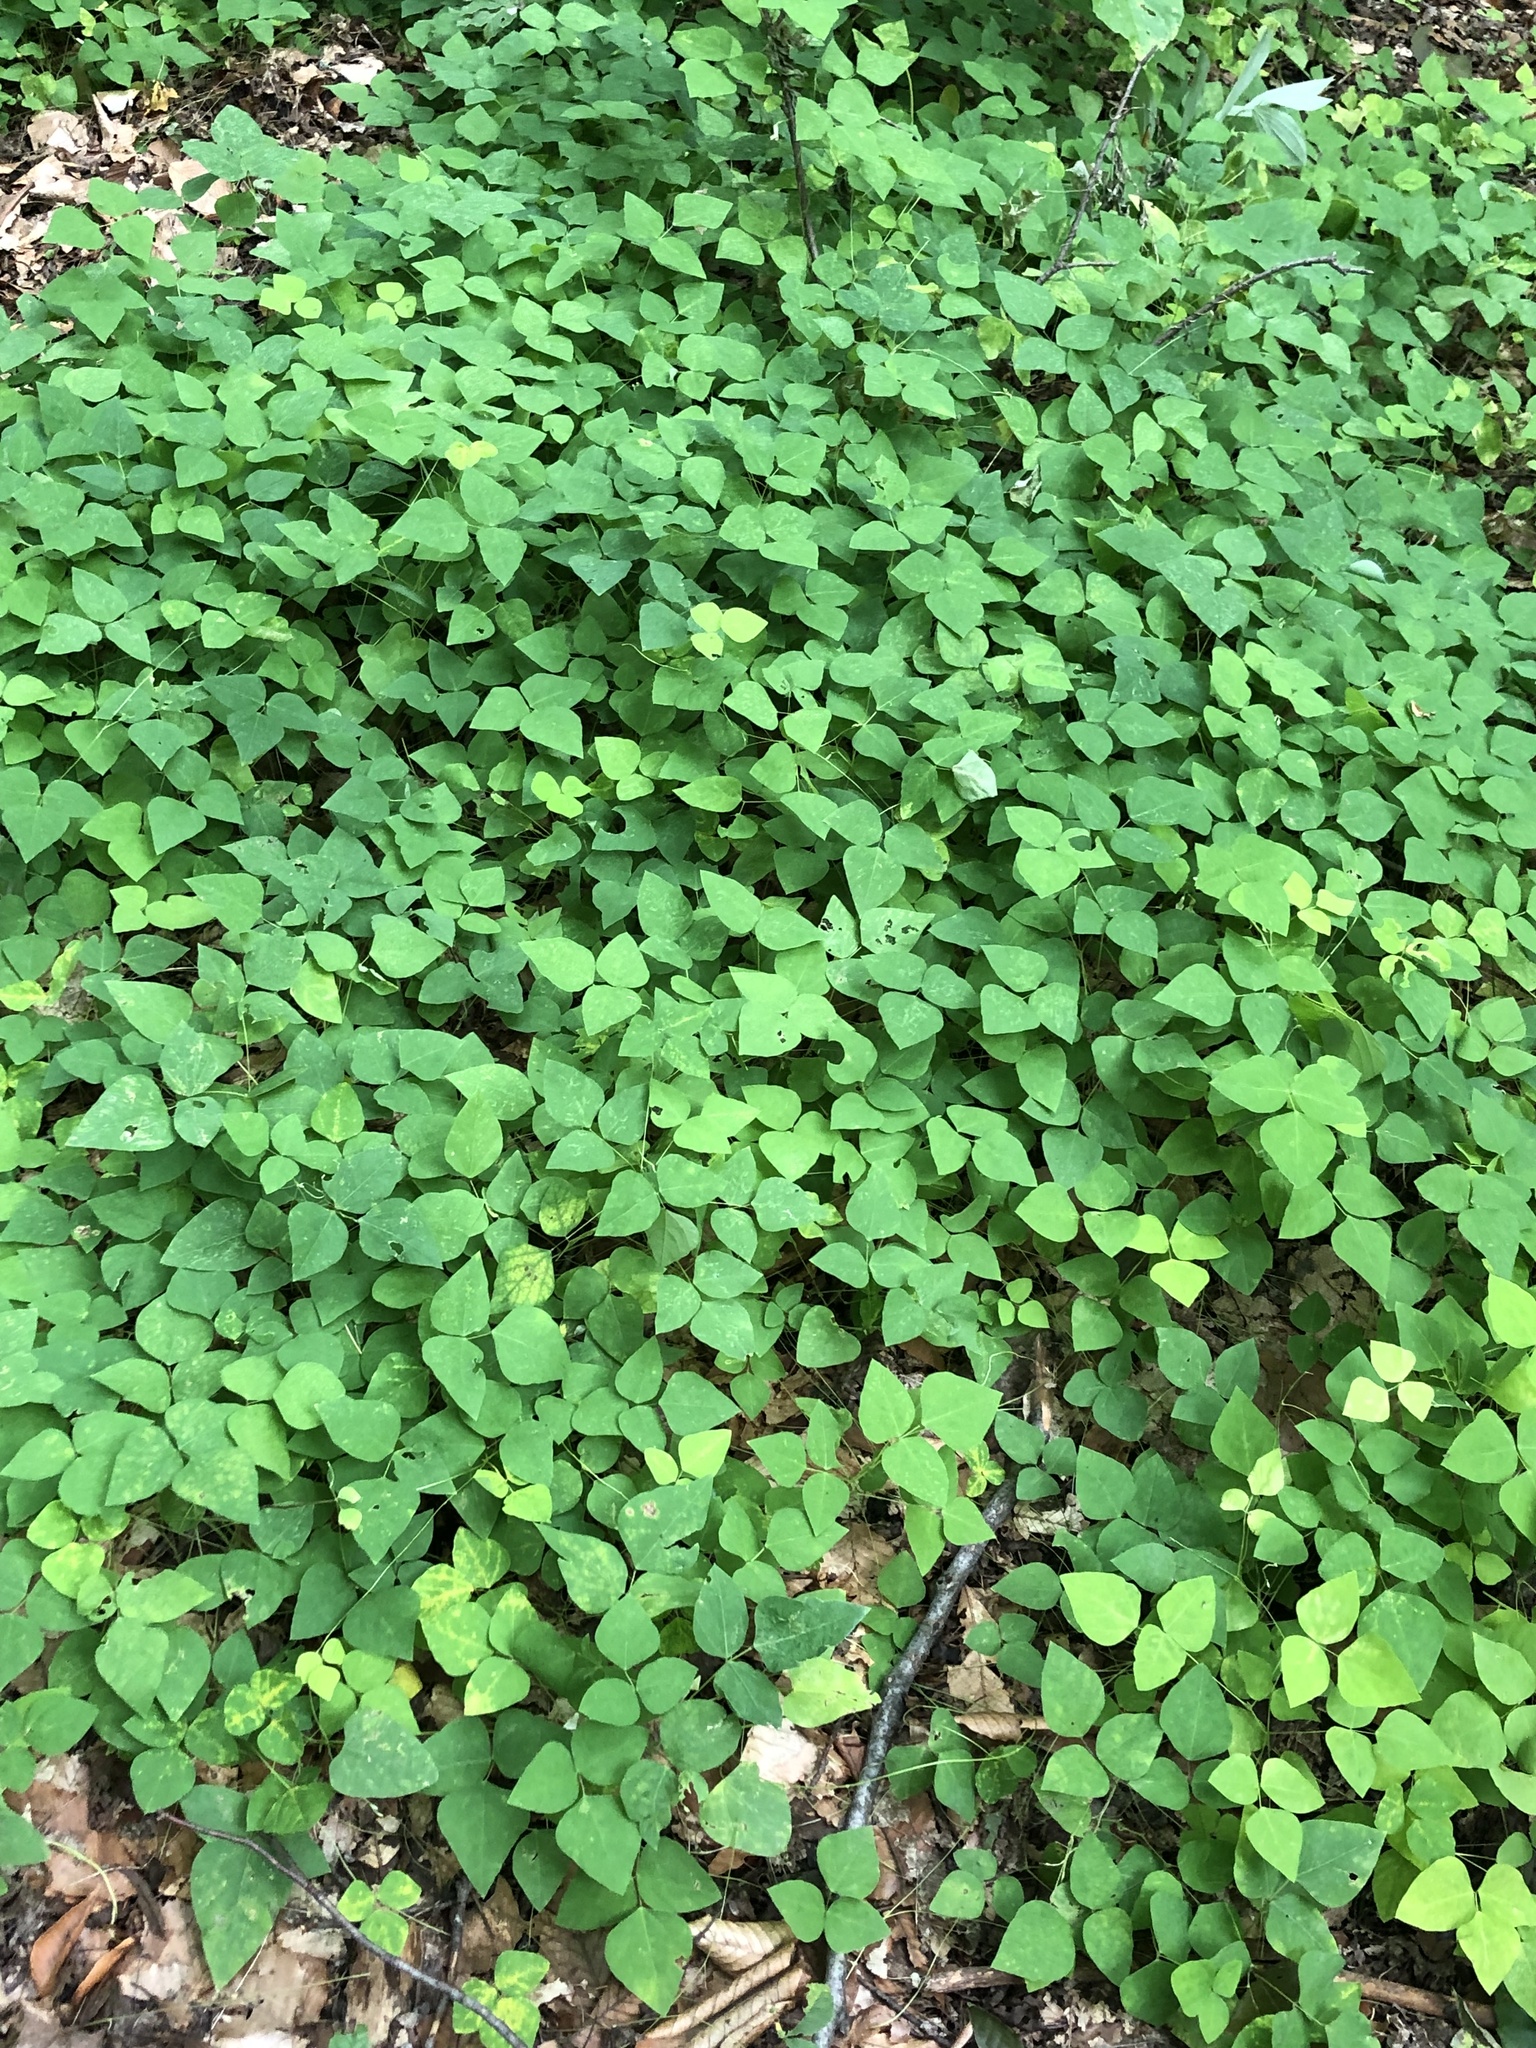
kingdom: Plantae
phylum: Tracheophyta
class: Magnoliopsida
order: Fabales
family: Fabaceae
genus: Amphicarpaea
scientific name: Amphicarpaea bracteata
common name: American hog peanut
